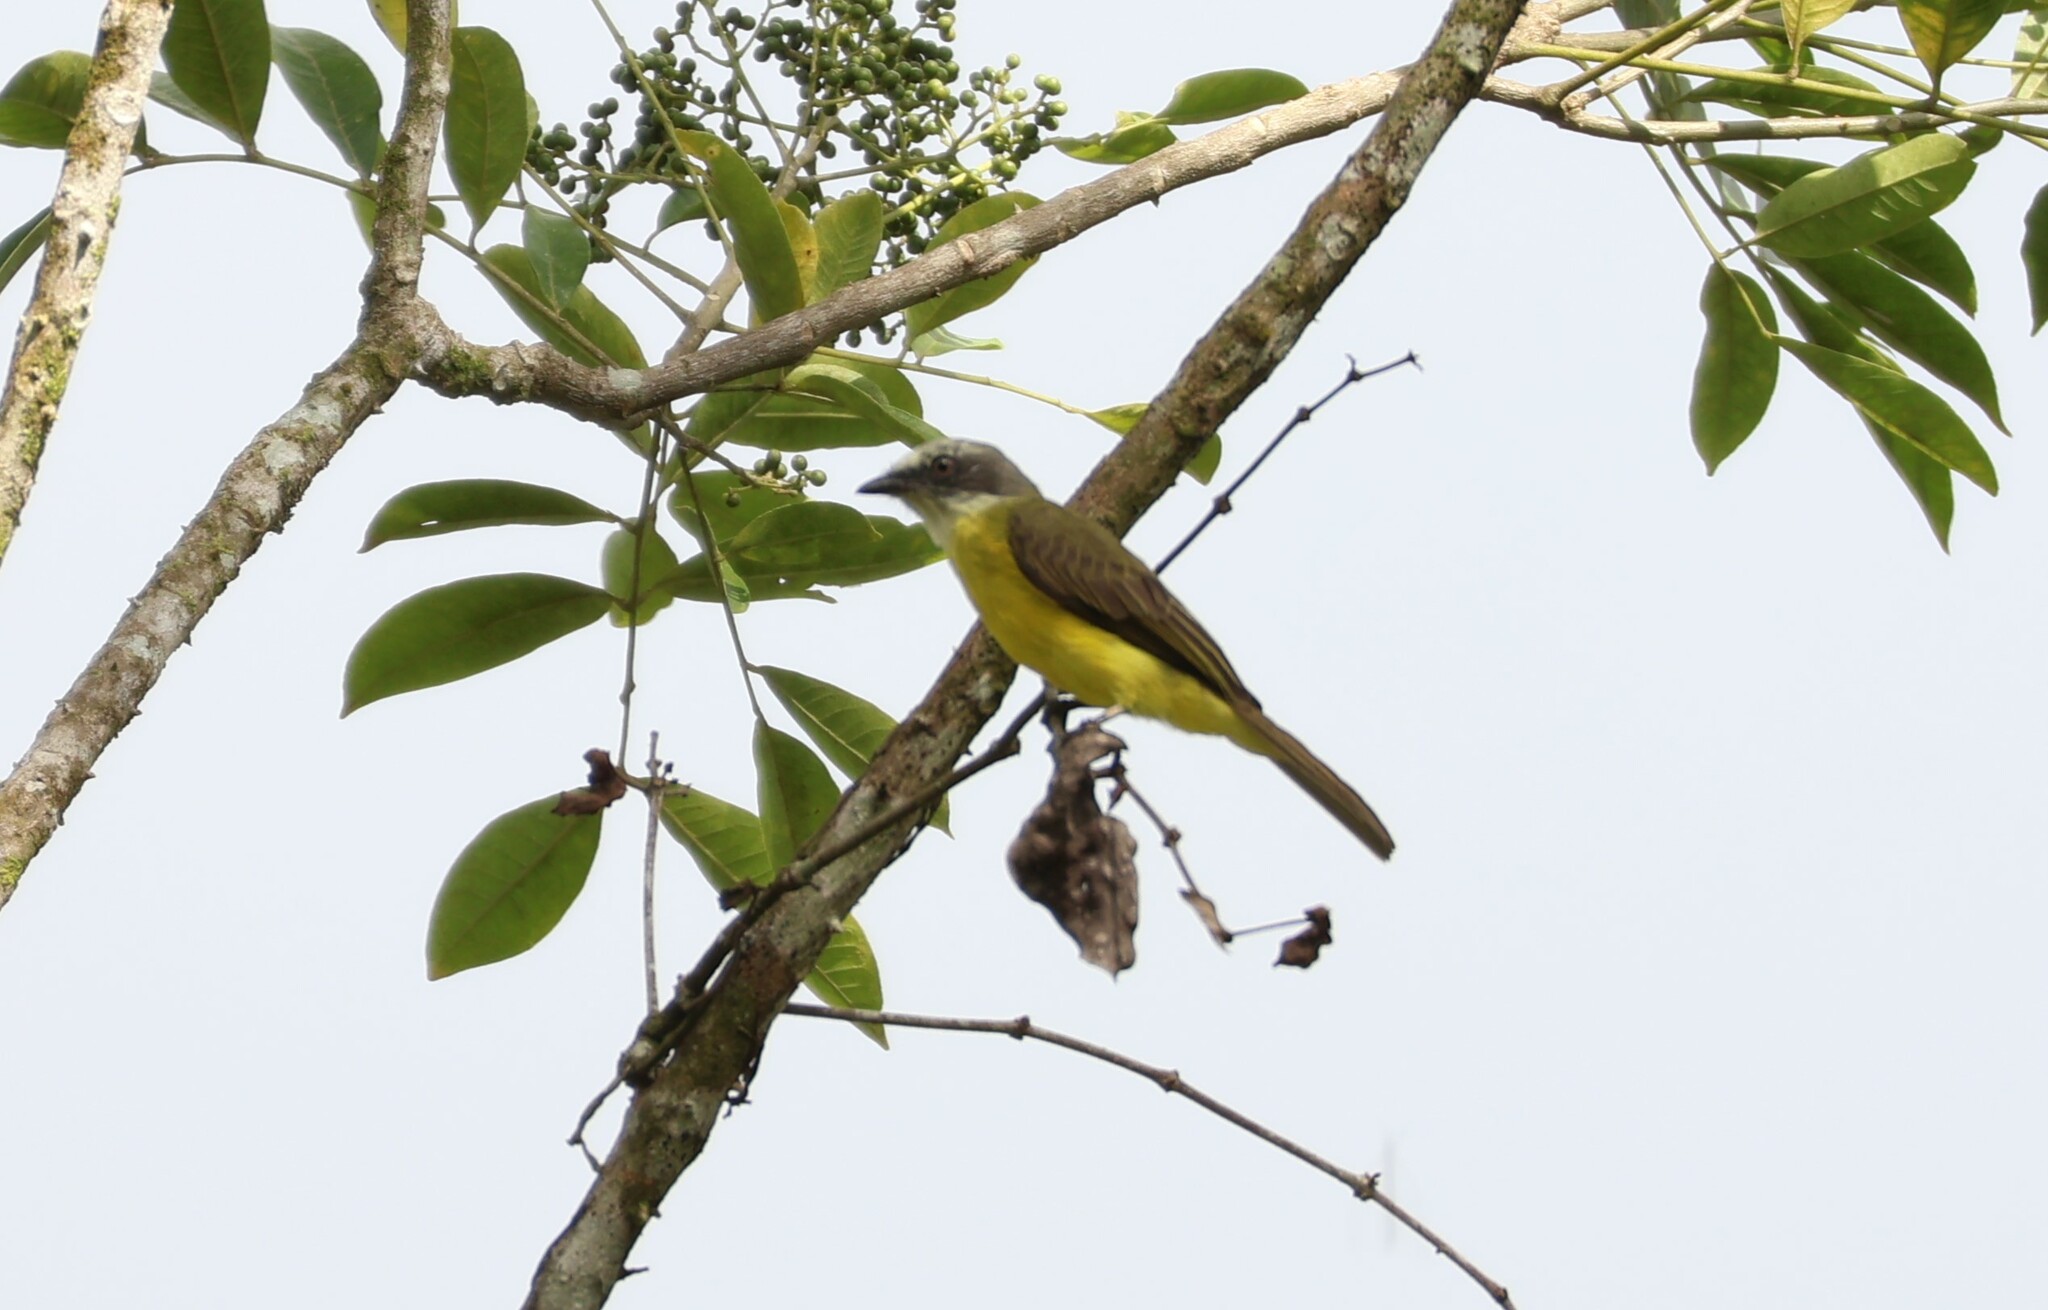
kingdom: Animalia
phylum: Chordata
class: Aves
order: Passeriformes
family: Tyrannidae
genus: Myiozetetes
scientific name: Myiozetetes granadensis
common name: Gray-capped flycatcher
